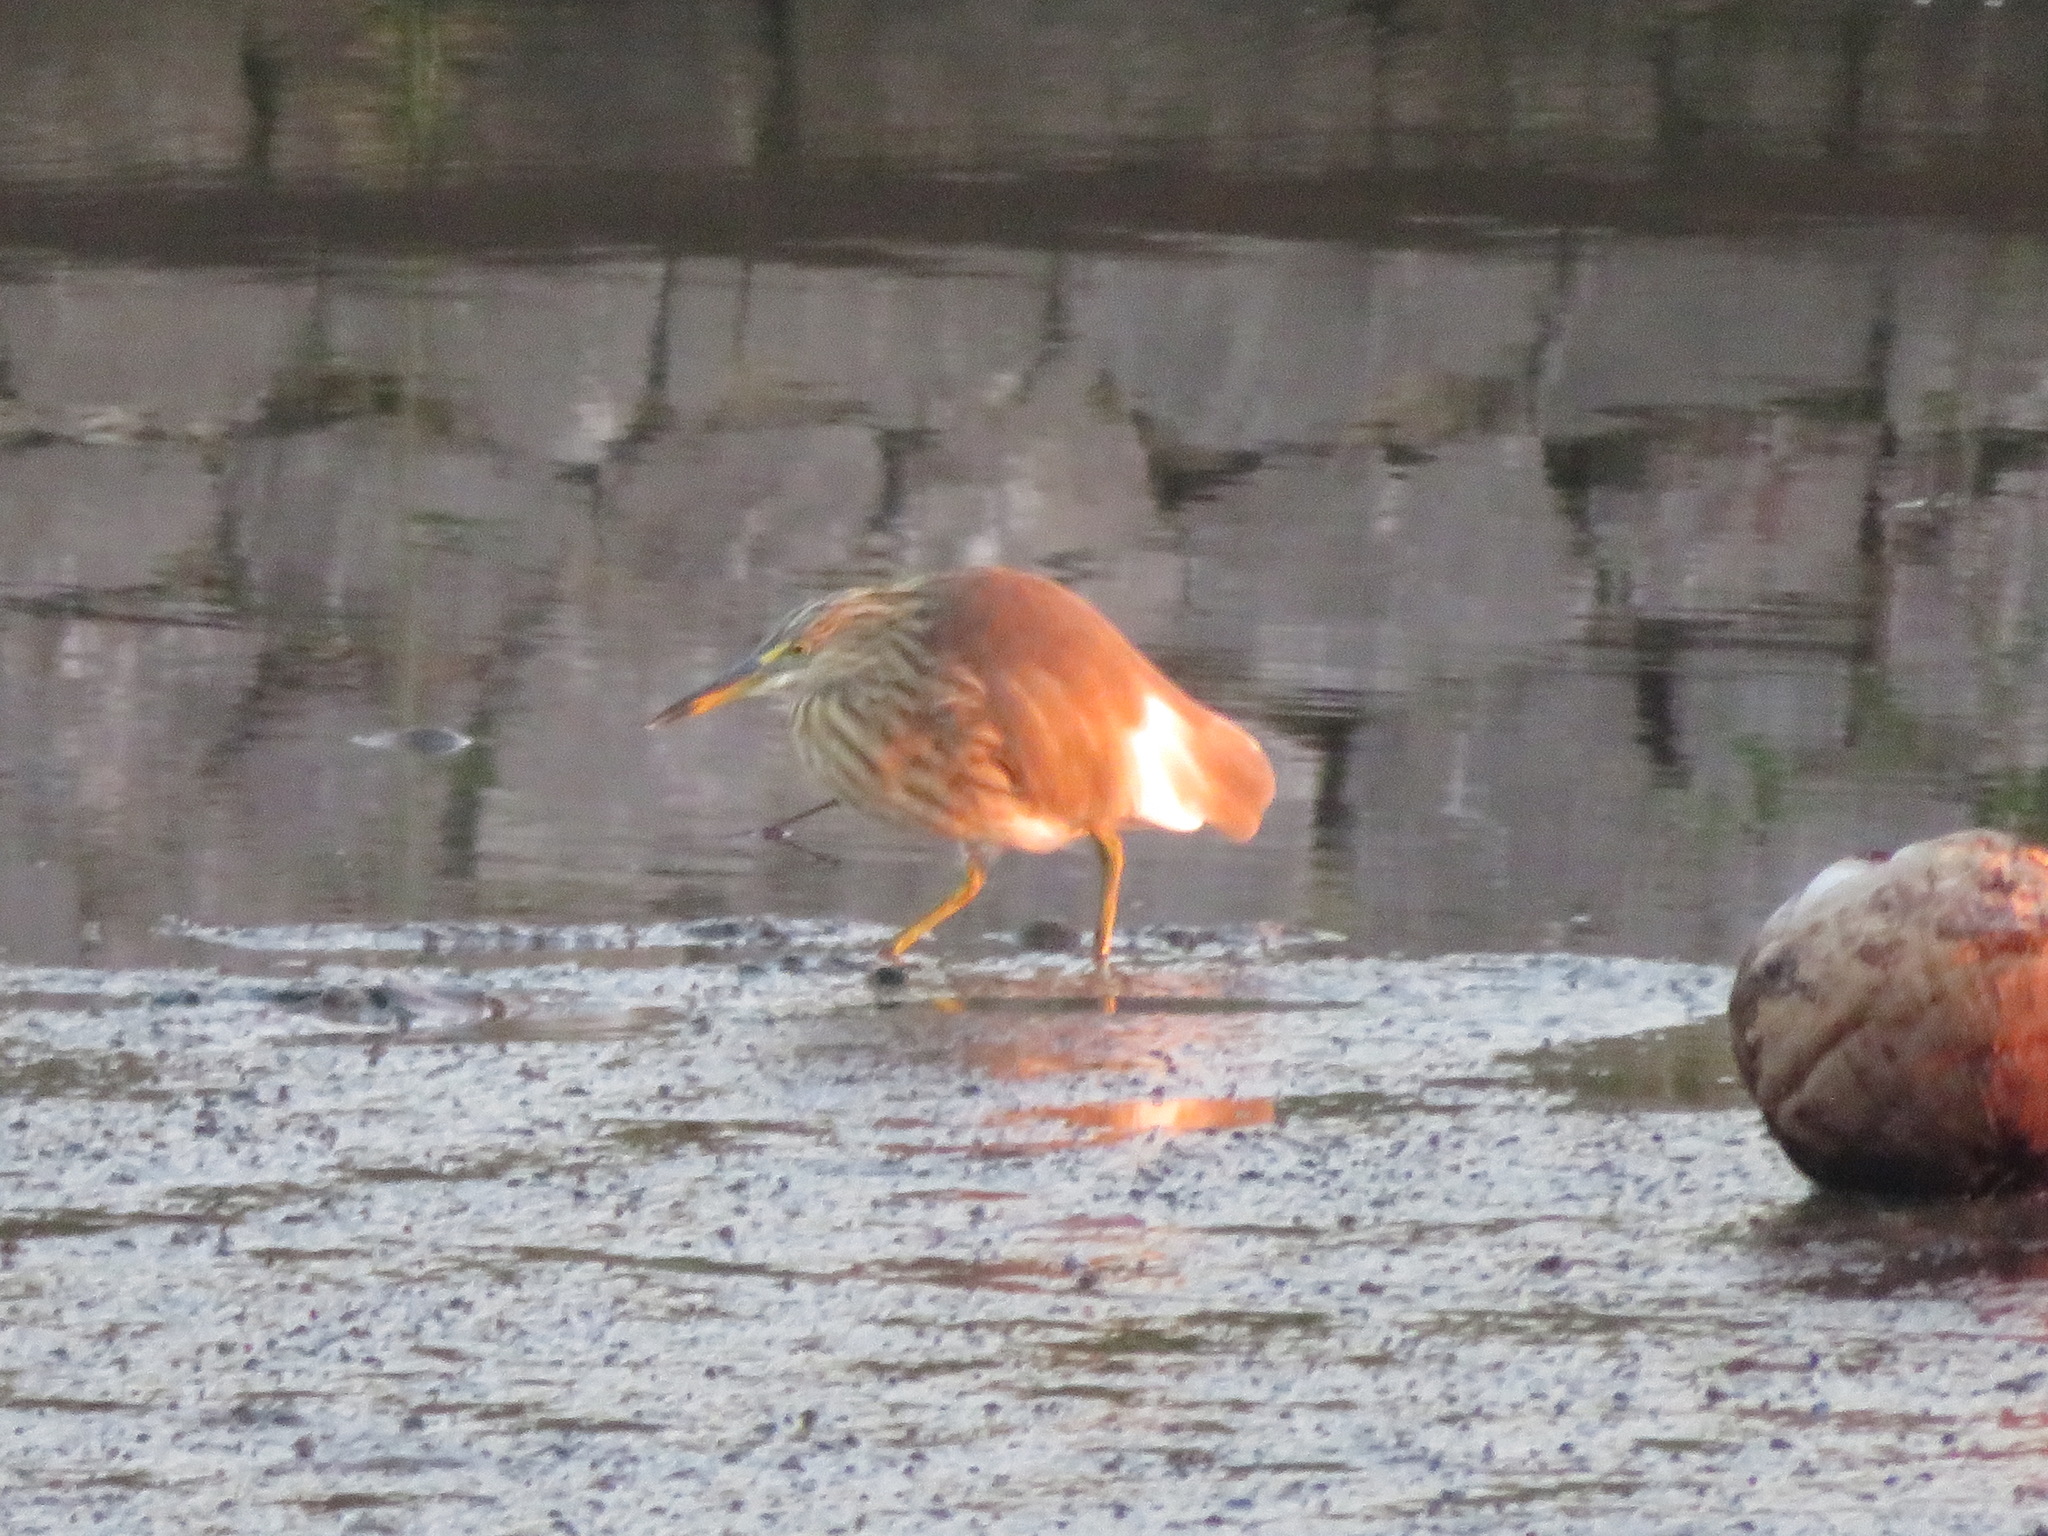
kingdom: Animalia
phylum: Chordata
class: Aves
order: Pelecaniformes
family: Ardeidae
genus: Ardeola
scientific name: Ardeola bacchus
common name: Chinese pond heron
